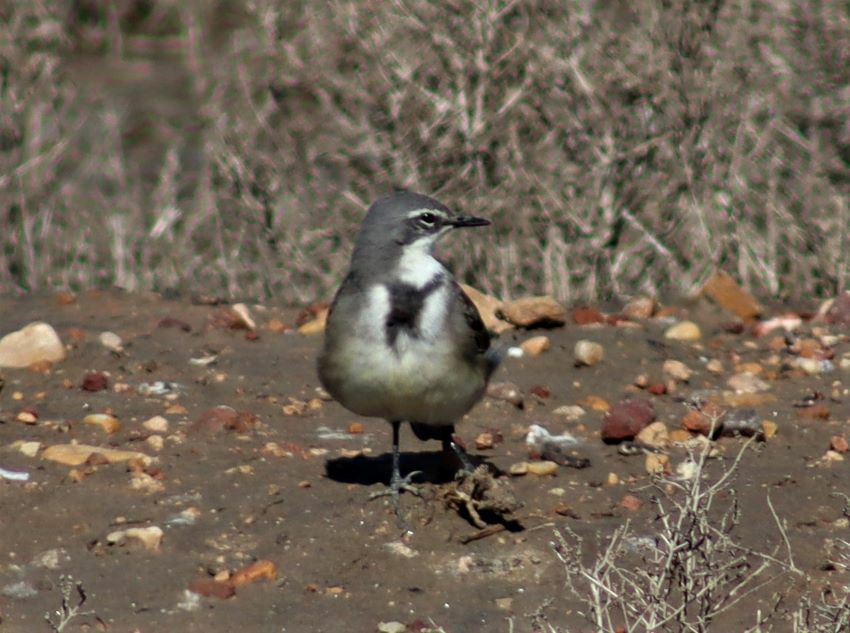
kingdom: Animalia
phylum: Chordata
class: Aves
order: Passeriformes
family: Motacillidae
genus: Motacilla
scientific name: Motacilla capensis
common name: Cape wagtail
